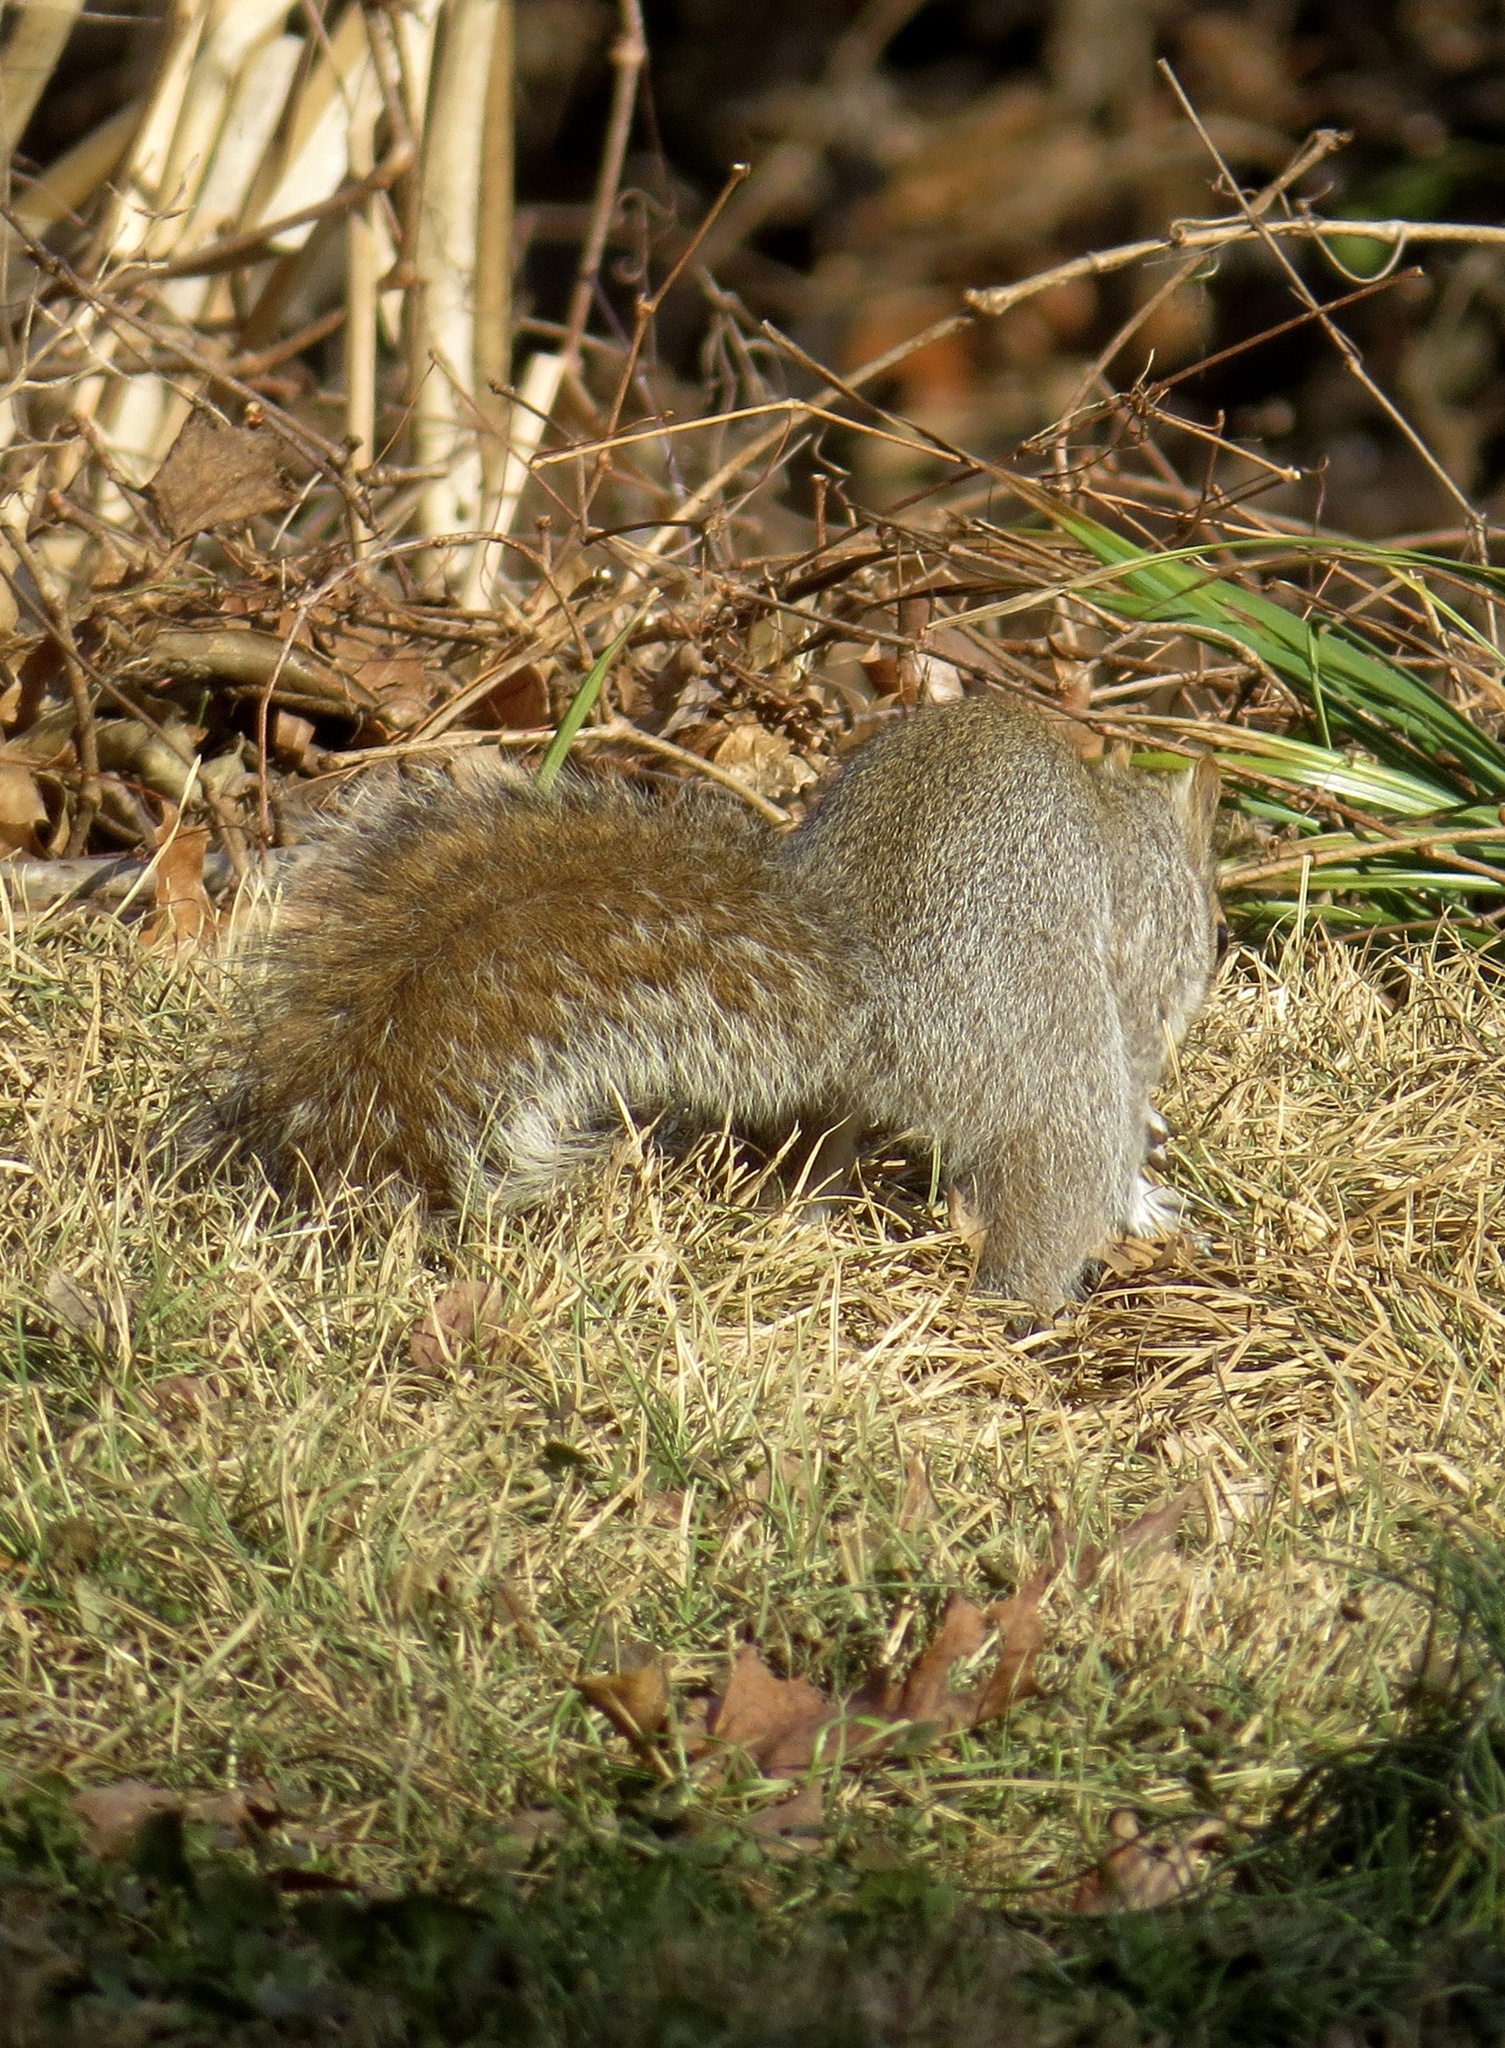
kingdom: Animalia
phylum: Chordata
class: Mammalia
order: Rodentia
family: Sciuridae
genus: Sciurus
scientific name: Sciurus carolinensis
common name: Eastern gray squirrel
